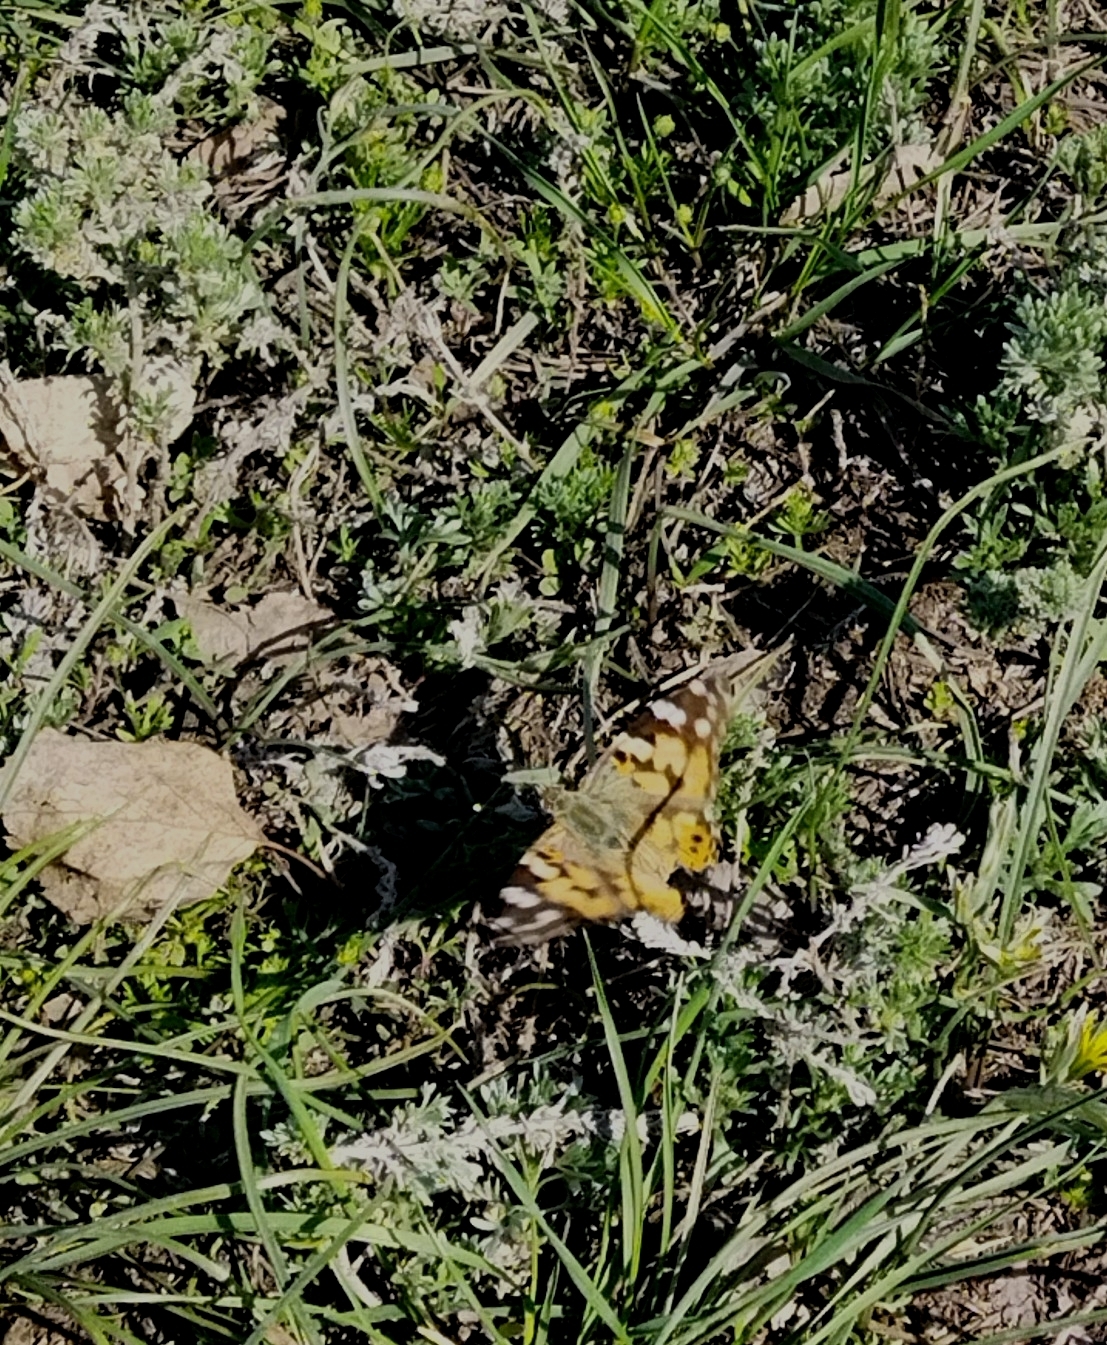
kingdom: Animalia
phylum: Arthropoda
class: Insecta
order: Lepidoptera
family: Nymphalidae
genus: Vanessa
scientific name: Vanessa cardui
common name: Painted lady
